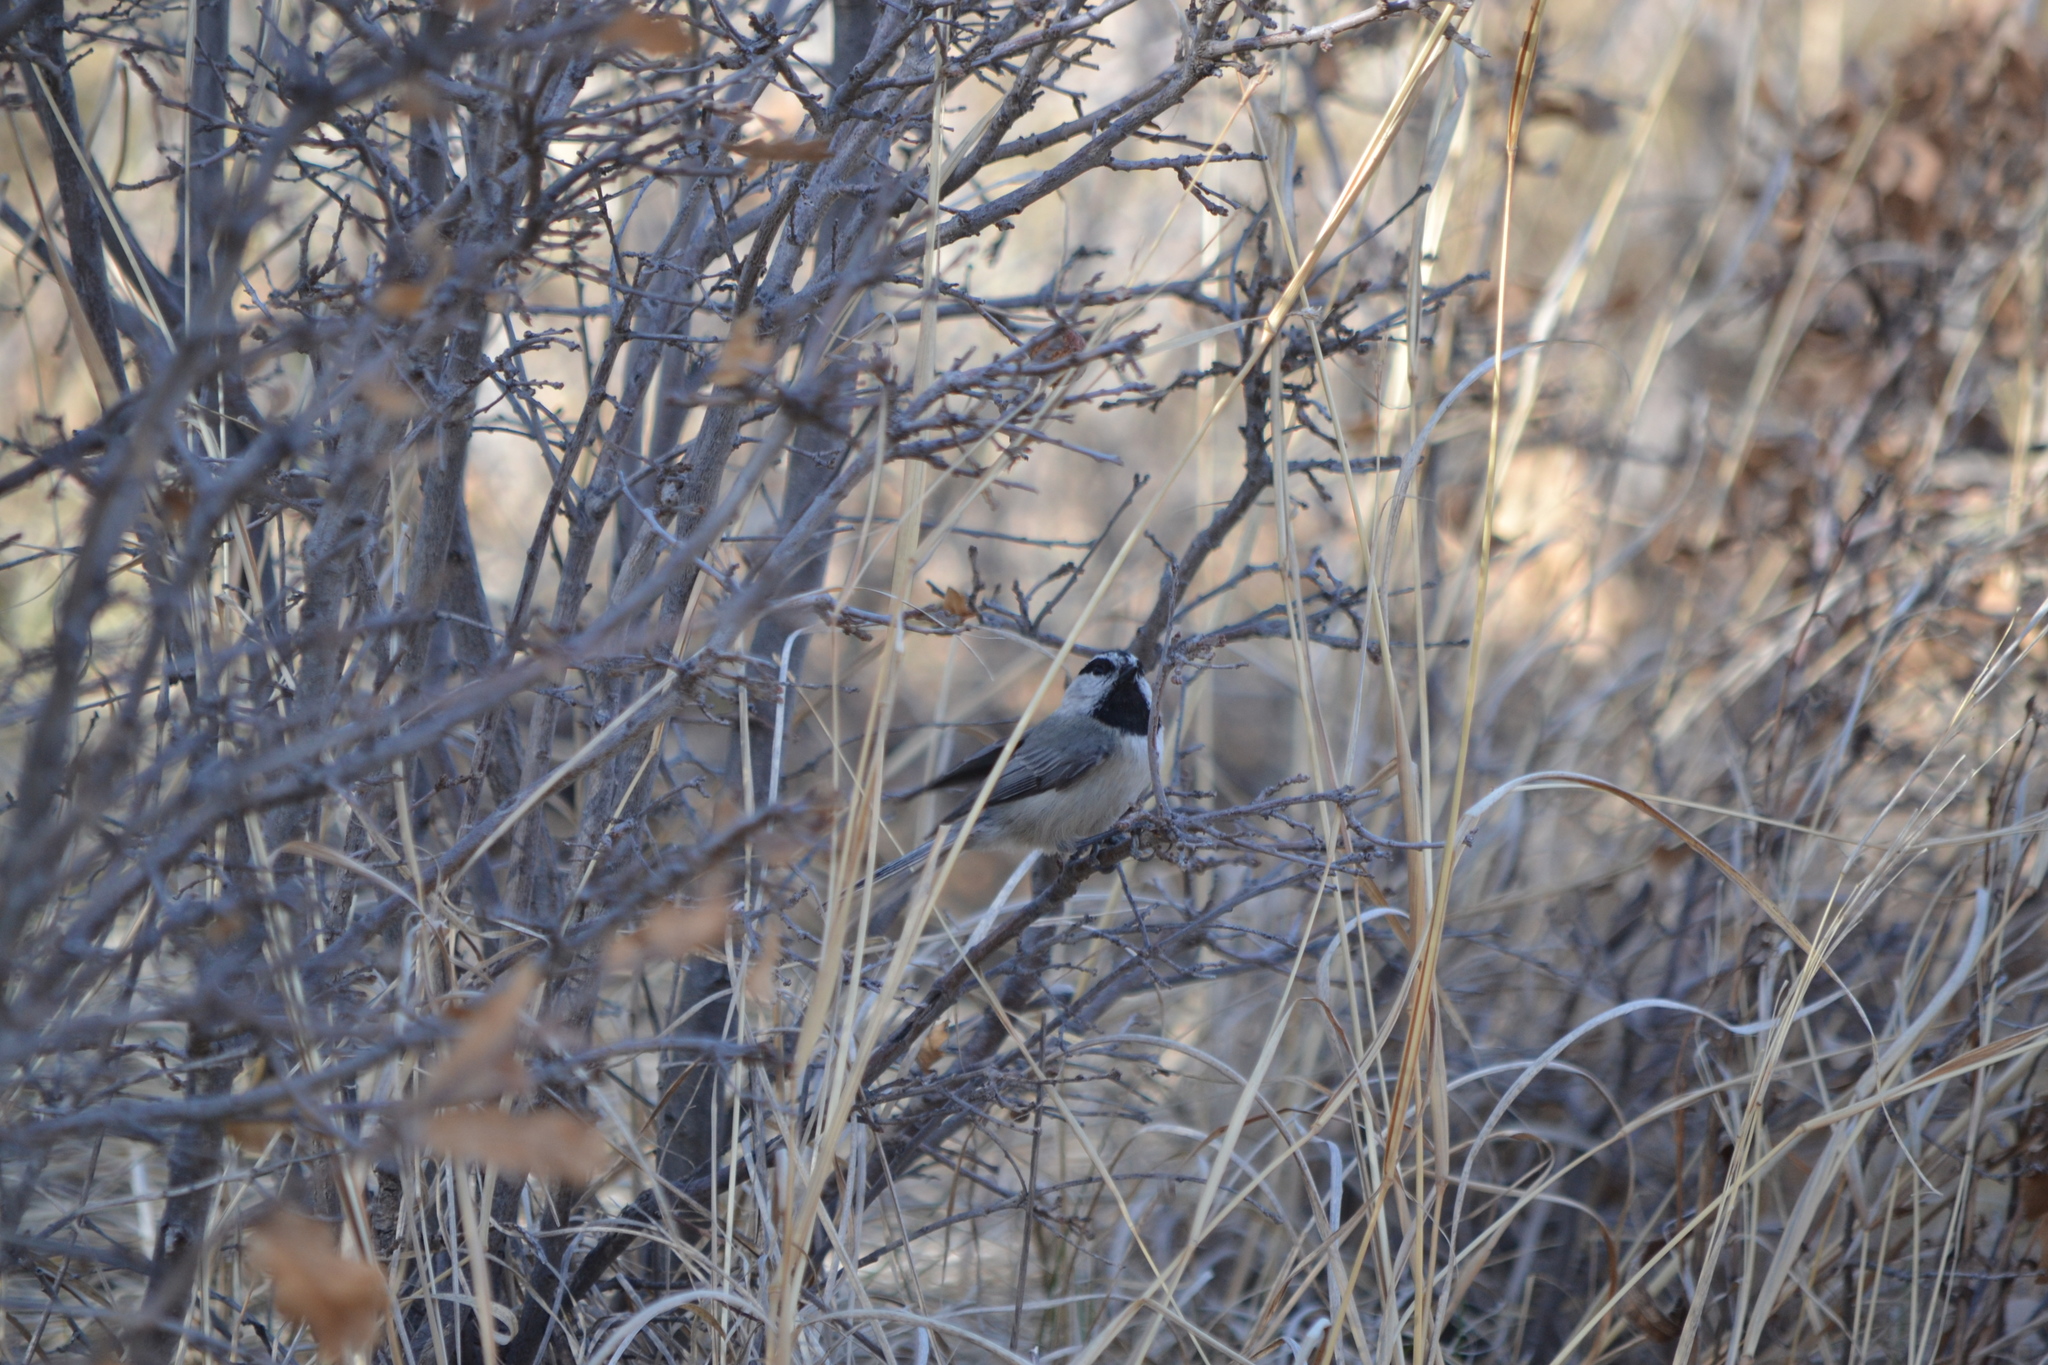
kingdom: Animalia
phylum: Chordata
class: Aves
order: Passeriformes
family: Paridae
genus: Poecile
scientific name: Poecile gambeli
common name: Mountain chickadee
